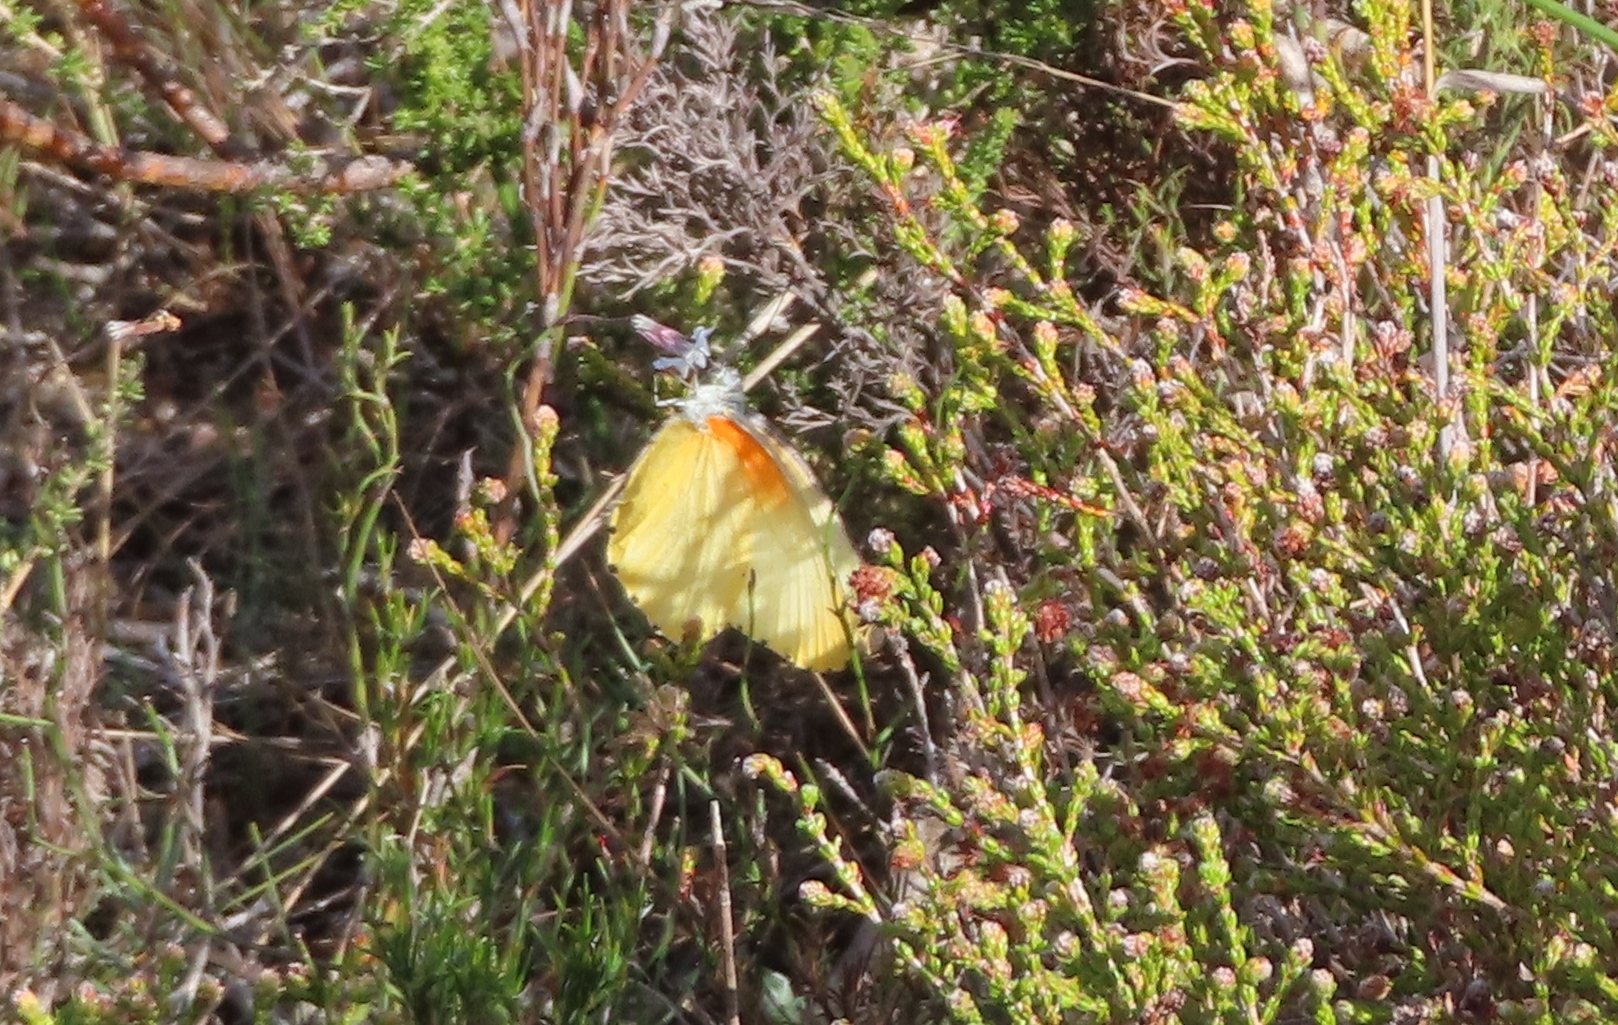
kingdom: Animalia
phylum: Arthropoda
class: Insecta
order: Lepidoptera
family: Pieridae
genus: Mylothris
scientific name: Mylothris agathina
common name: Eastern dotted border
